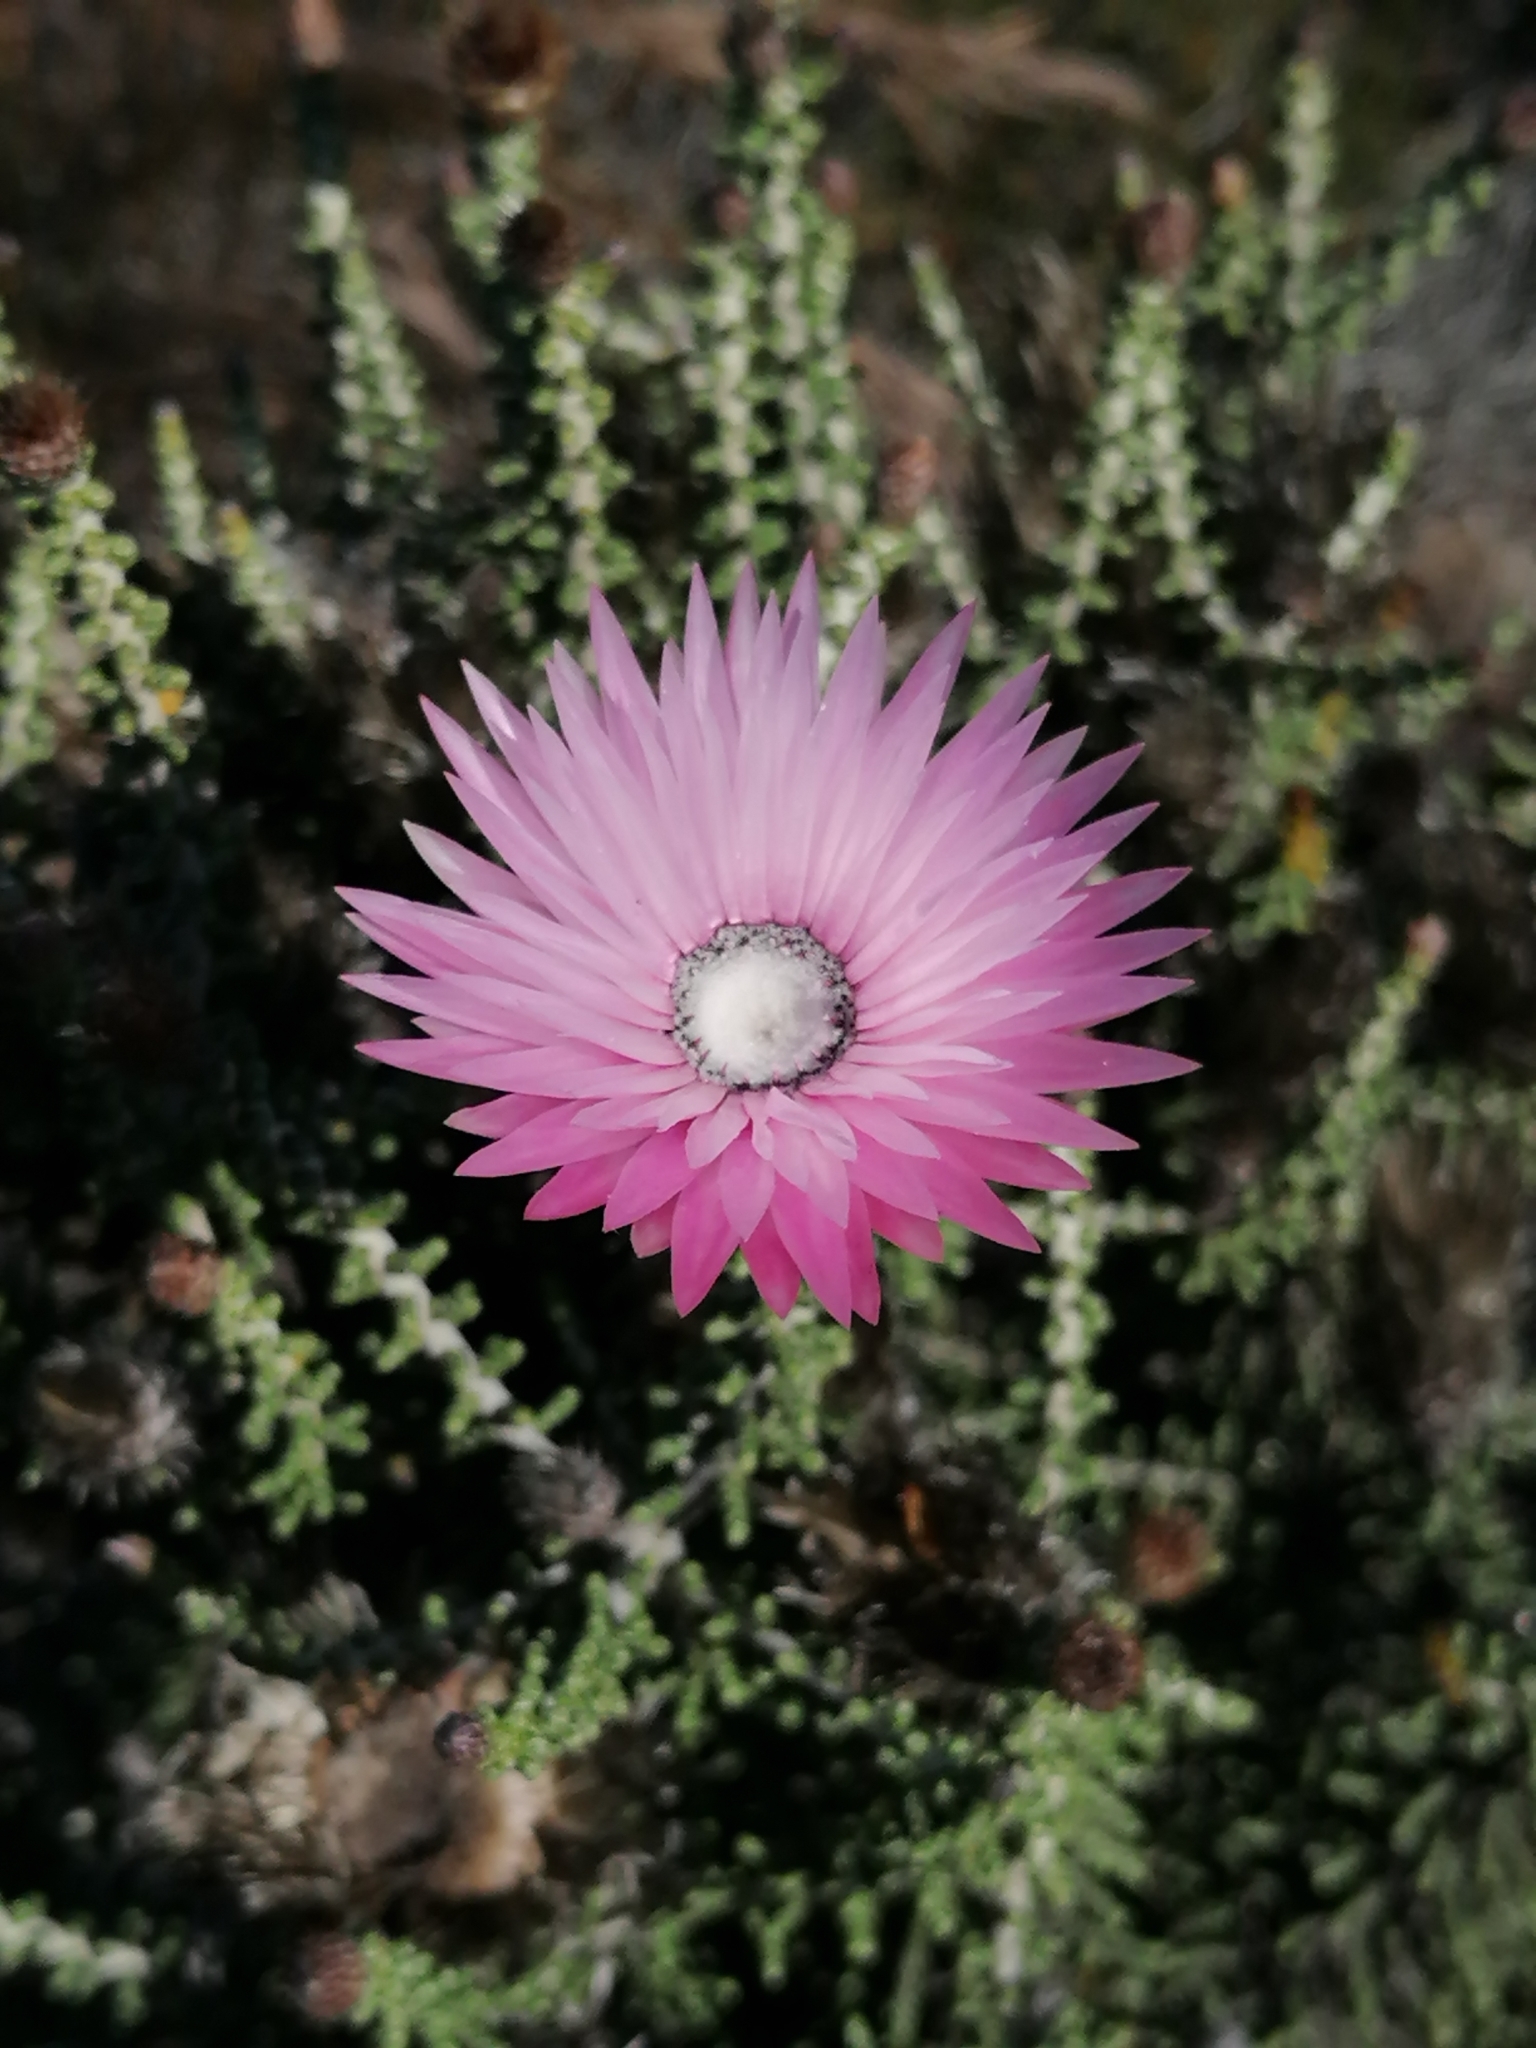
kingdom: Plantae
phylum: Tracheophyta
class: Magnoliopsida
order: Asterales
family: Asteraceae
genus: Phaenocoma
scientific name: Phaenocoma prolifera
